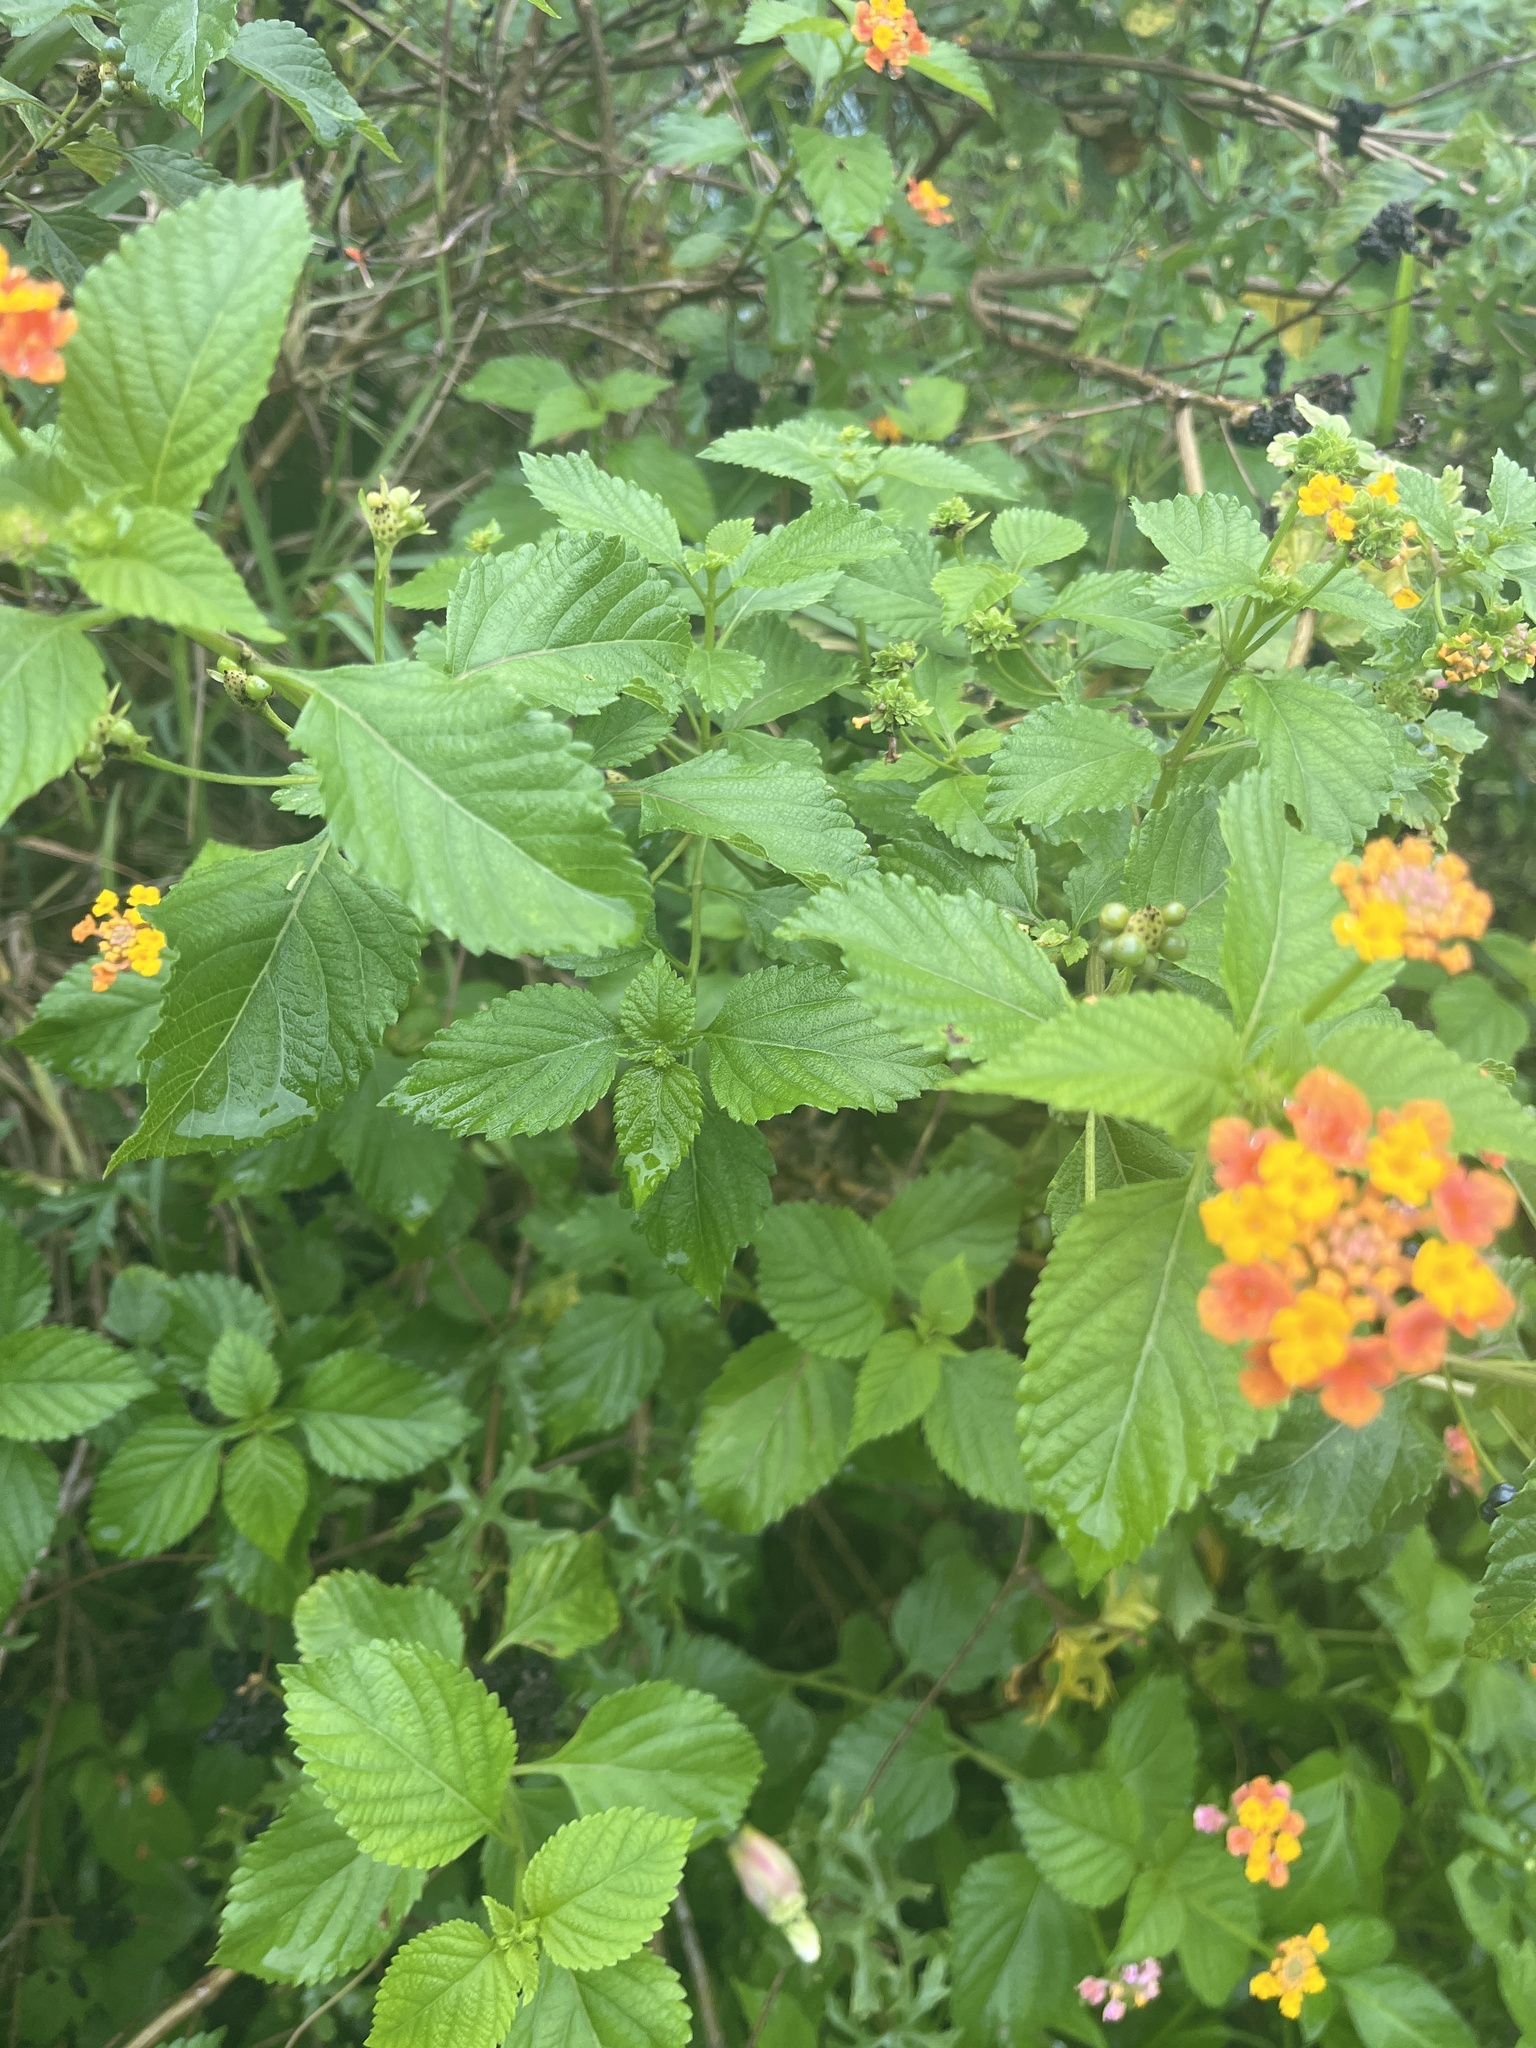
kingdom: Plantae
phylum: Tracheophyta
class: Magnoliopsida
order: Lamiales
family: Verbenaceae
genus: Lantana
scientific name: Lantana strigocamara
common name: Lantana
